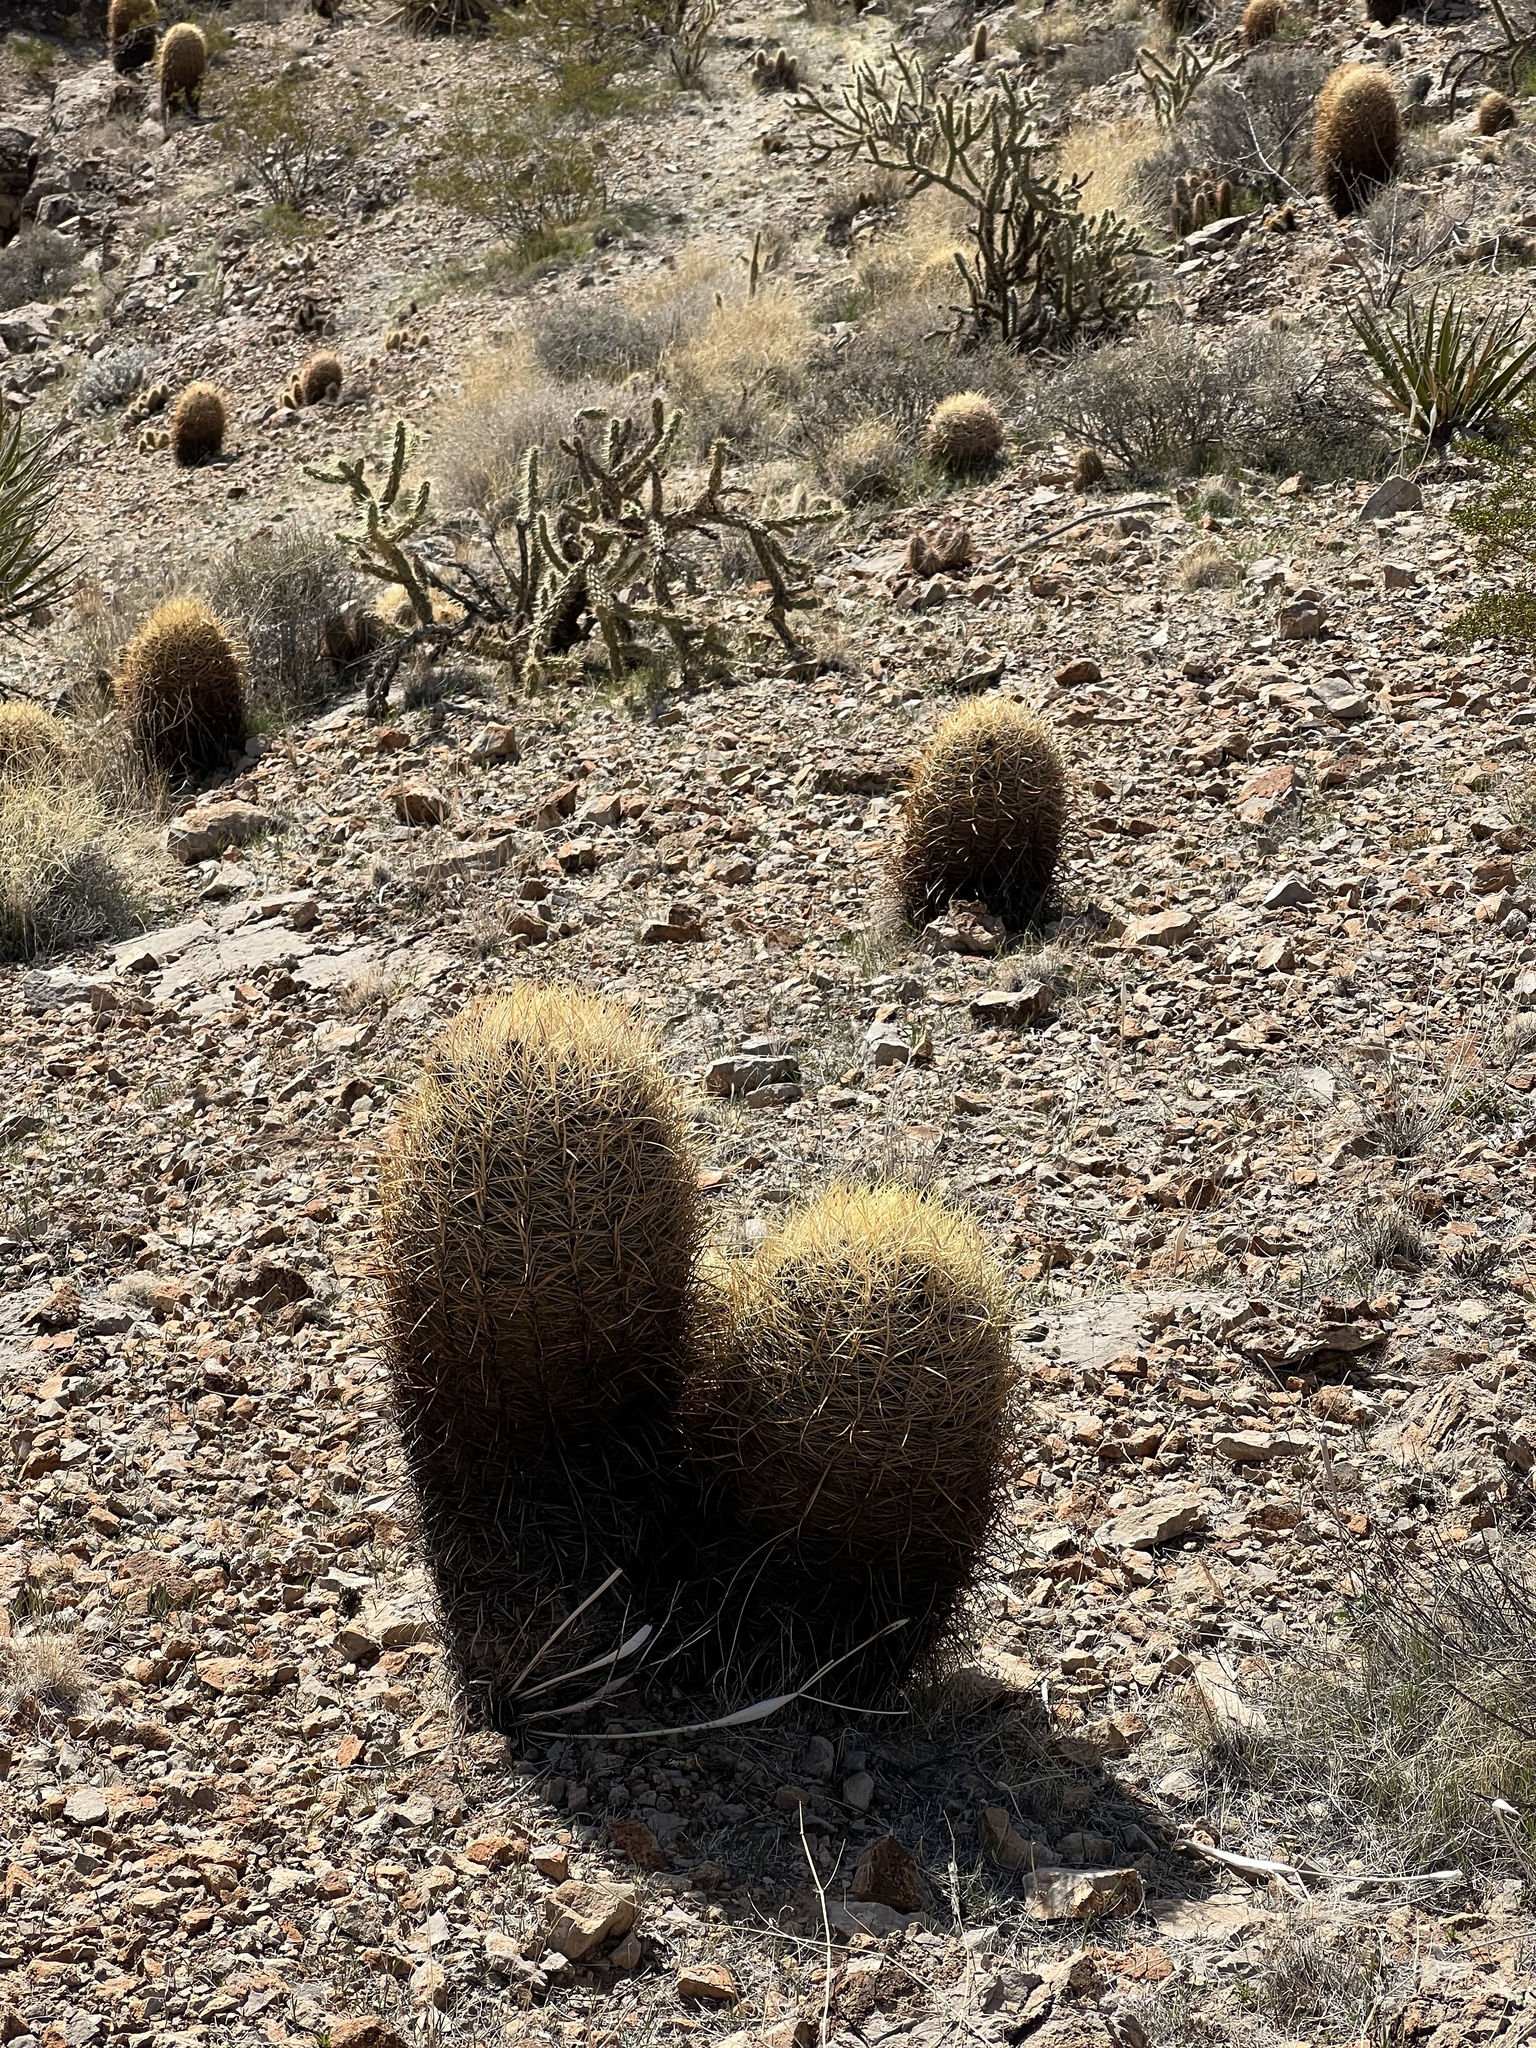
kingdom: Plantae
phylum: Tracheophyta
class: Magnoliopsida
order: Caryophyllales
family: Cactaceae
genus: Ferocactus
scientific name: Ferocactus cylindraceus
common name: California barrel cactus
